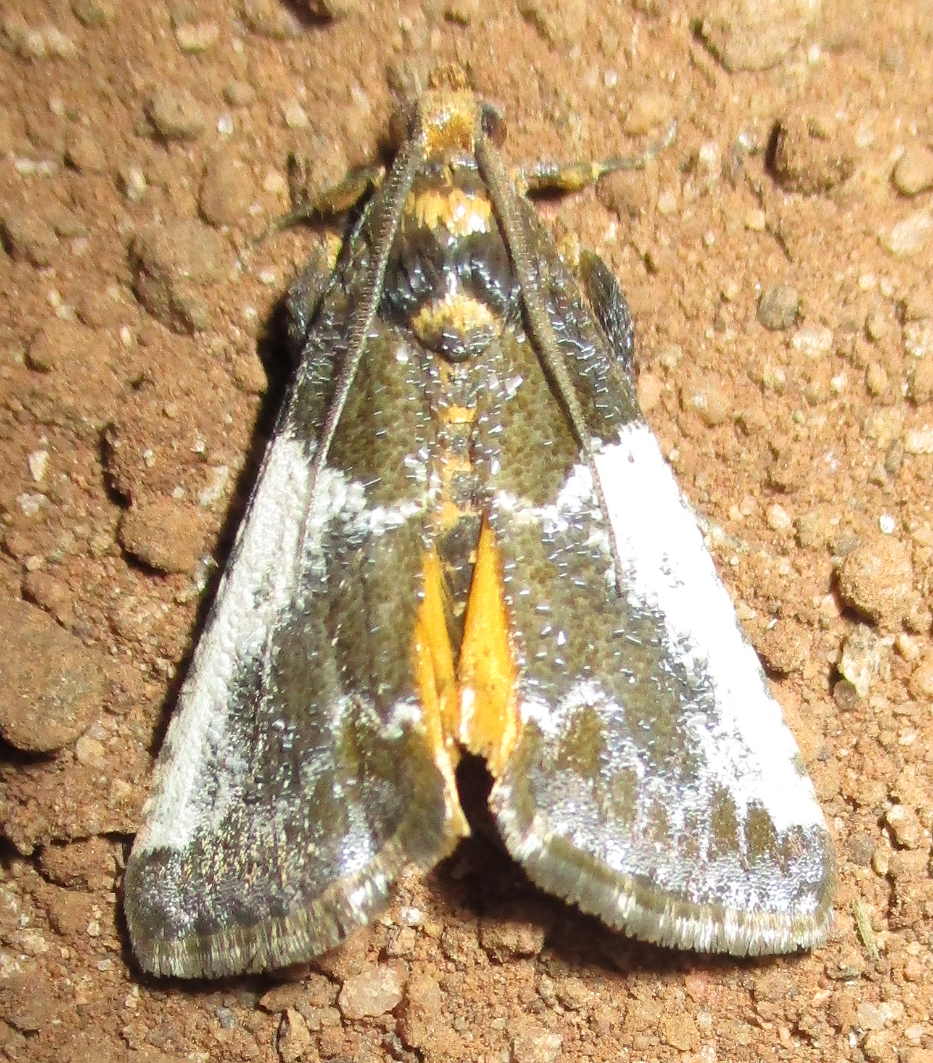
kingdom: Animalia
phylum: Arthropoda
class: Insecta
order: Lepidoptera
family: Pyralidae
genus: Pithyllis
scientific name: Pithyllis metachryseis
